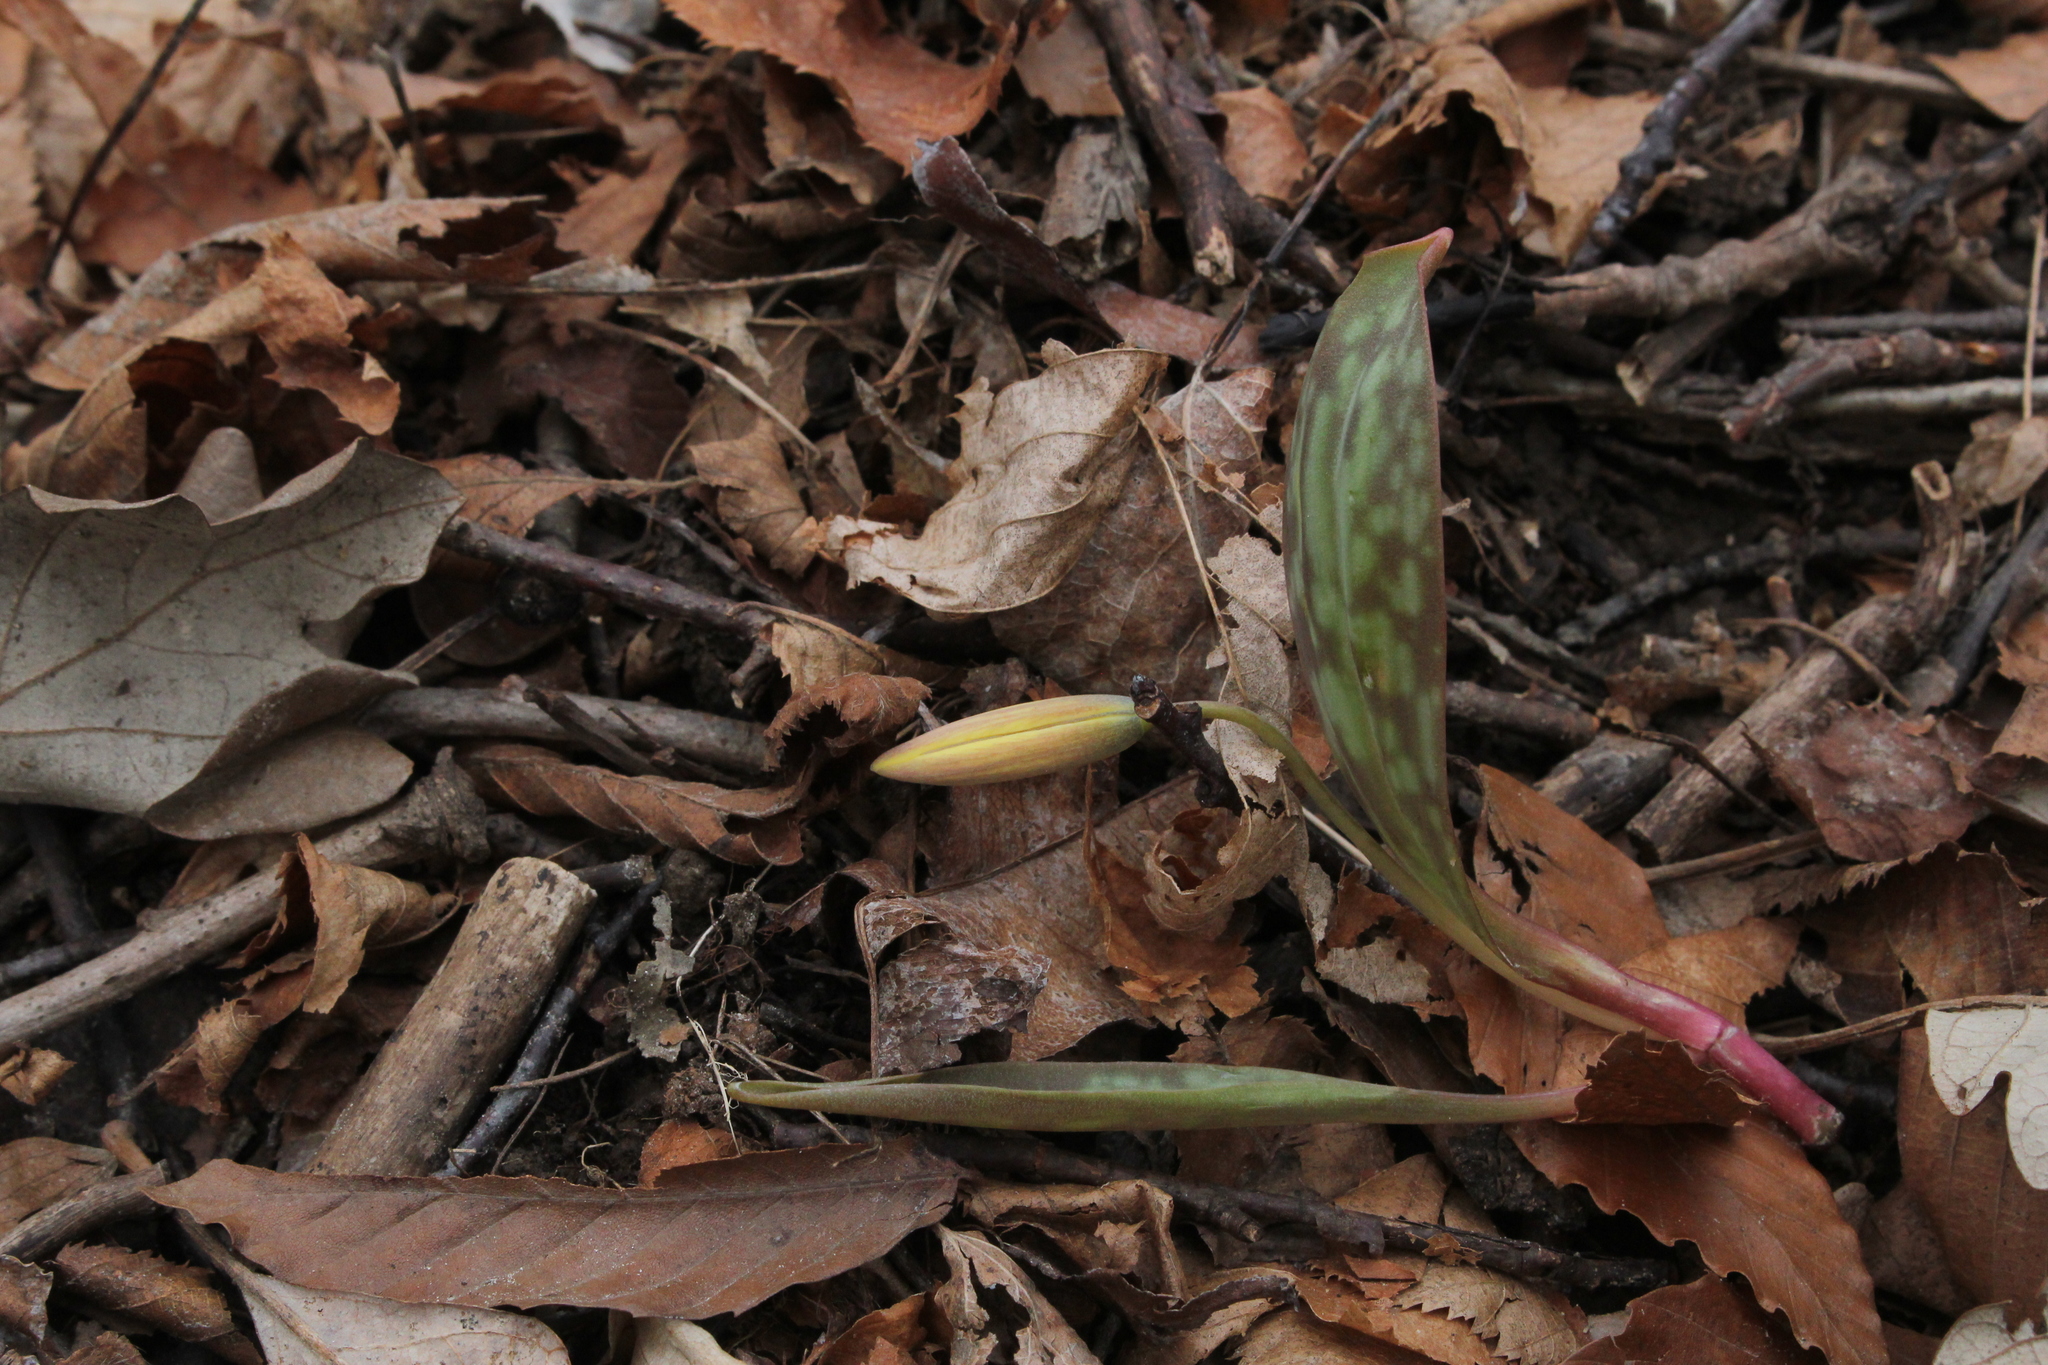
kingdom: Plantae
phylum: Tracheophyta
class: Liliopsida
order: Liliales
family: Liliaceae
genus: Erythronium
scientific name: Erythronium americanum
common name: Yellow adder's-tongue
